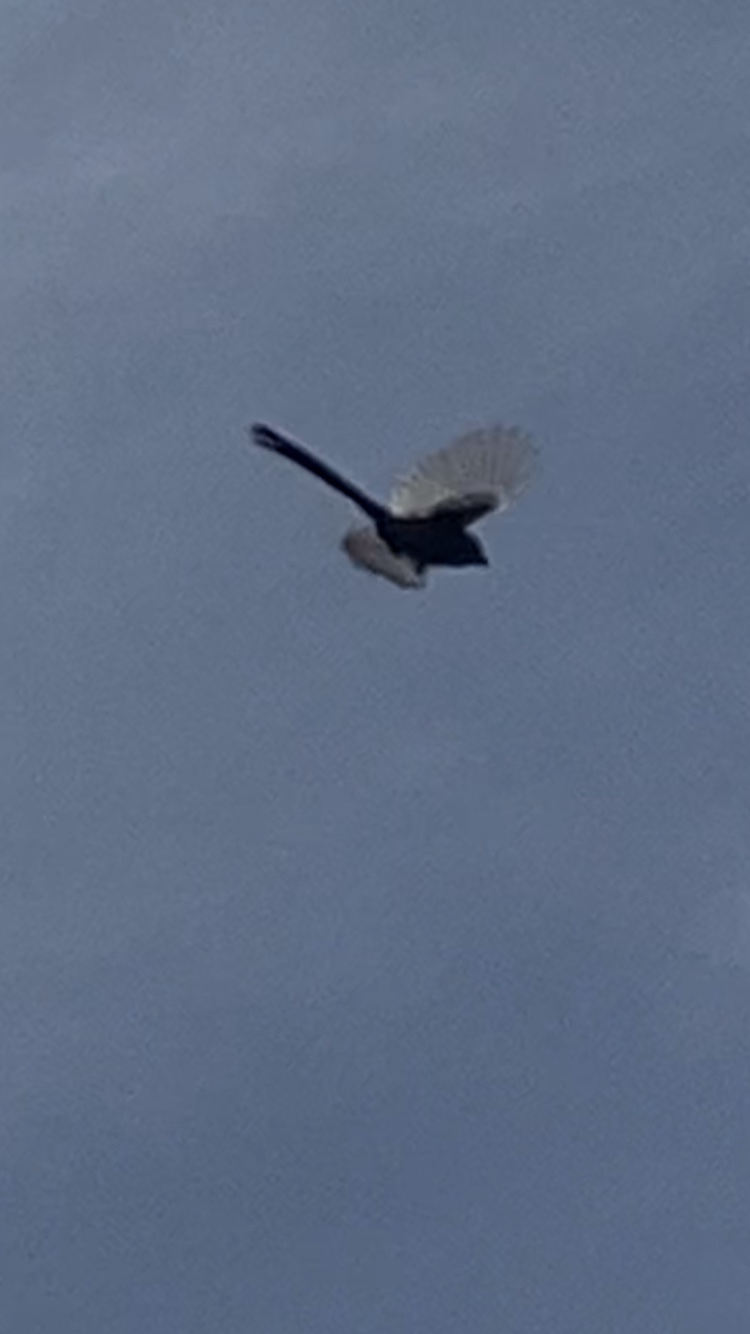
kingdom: Animalia
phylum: Chordata
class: Aves
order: Passeriformes
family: Aegithalidae
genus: Aegithalos
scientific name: Aegithalos caudatus
